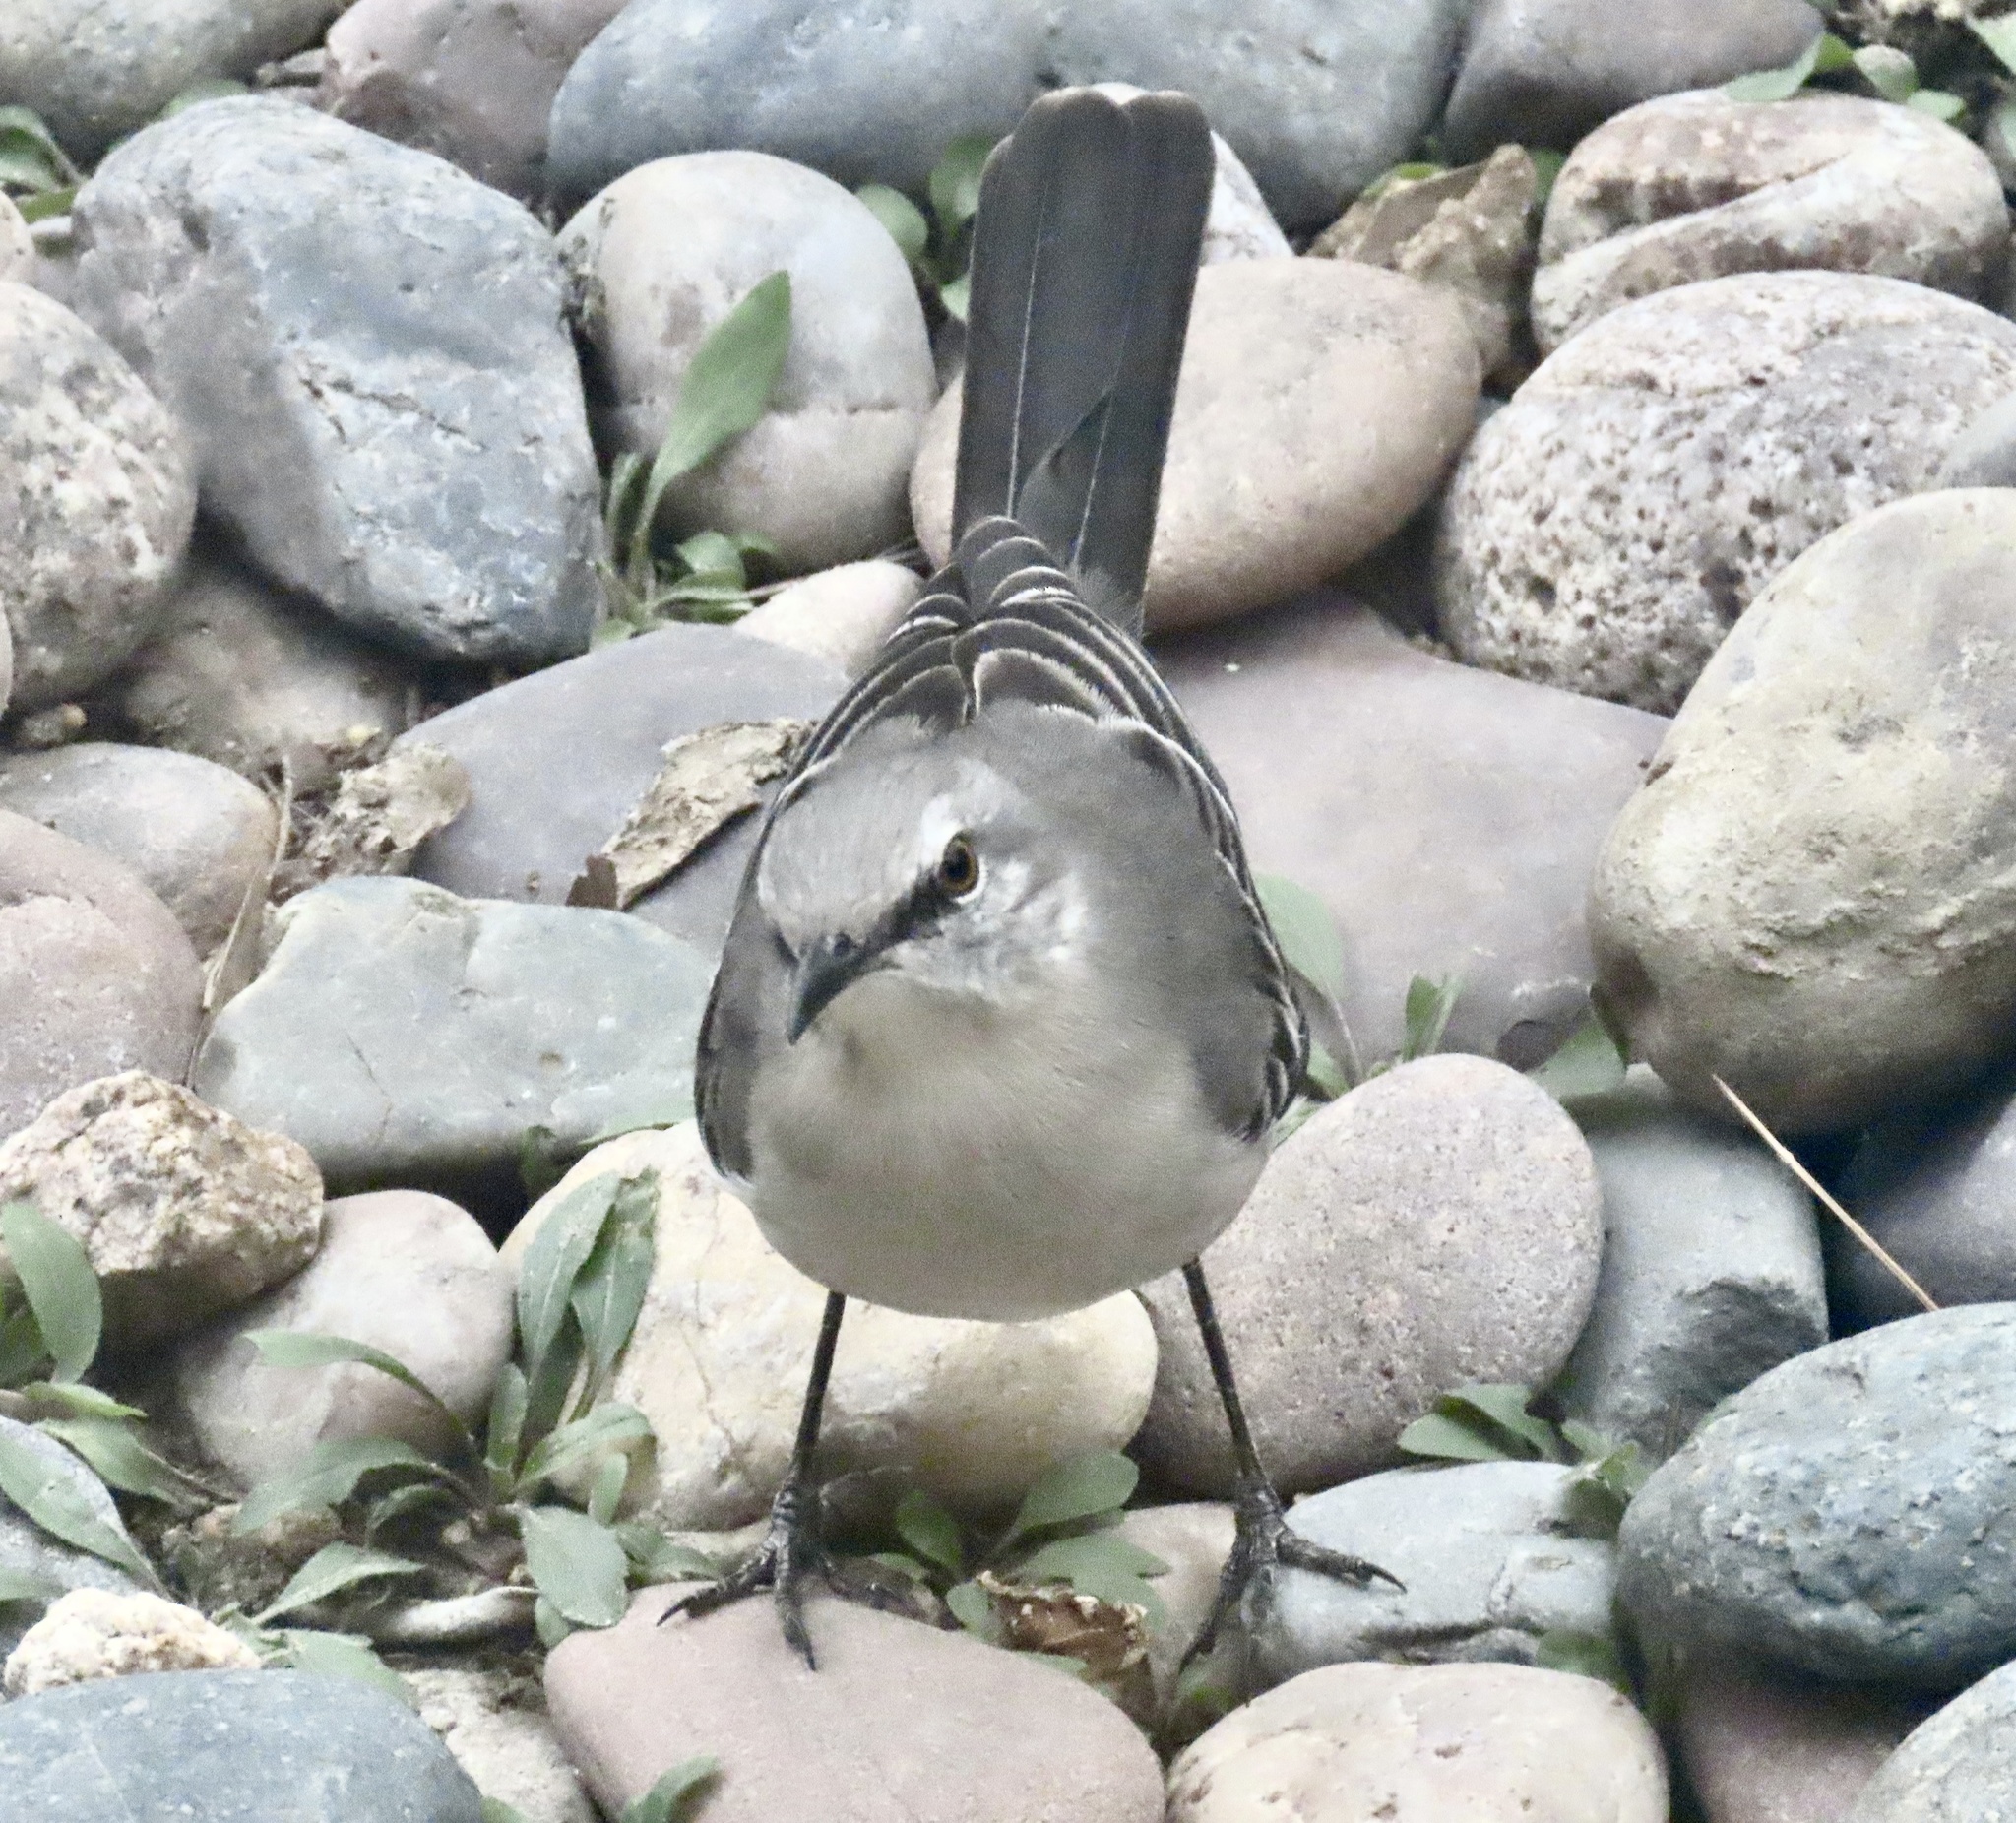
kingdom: Animalia
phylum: Chordata
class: Aves
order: Passeriformes
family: Mimidae
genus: Mimus
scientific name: Mimus polyglottos
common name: Northern mockingbird
